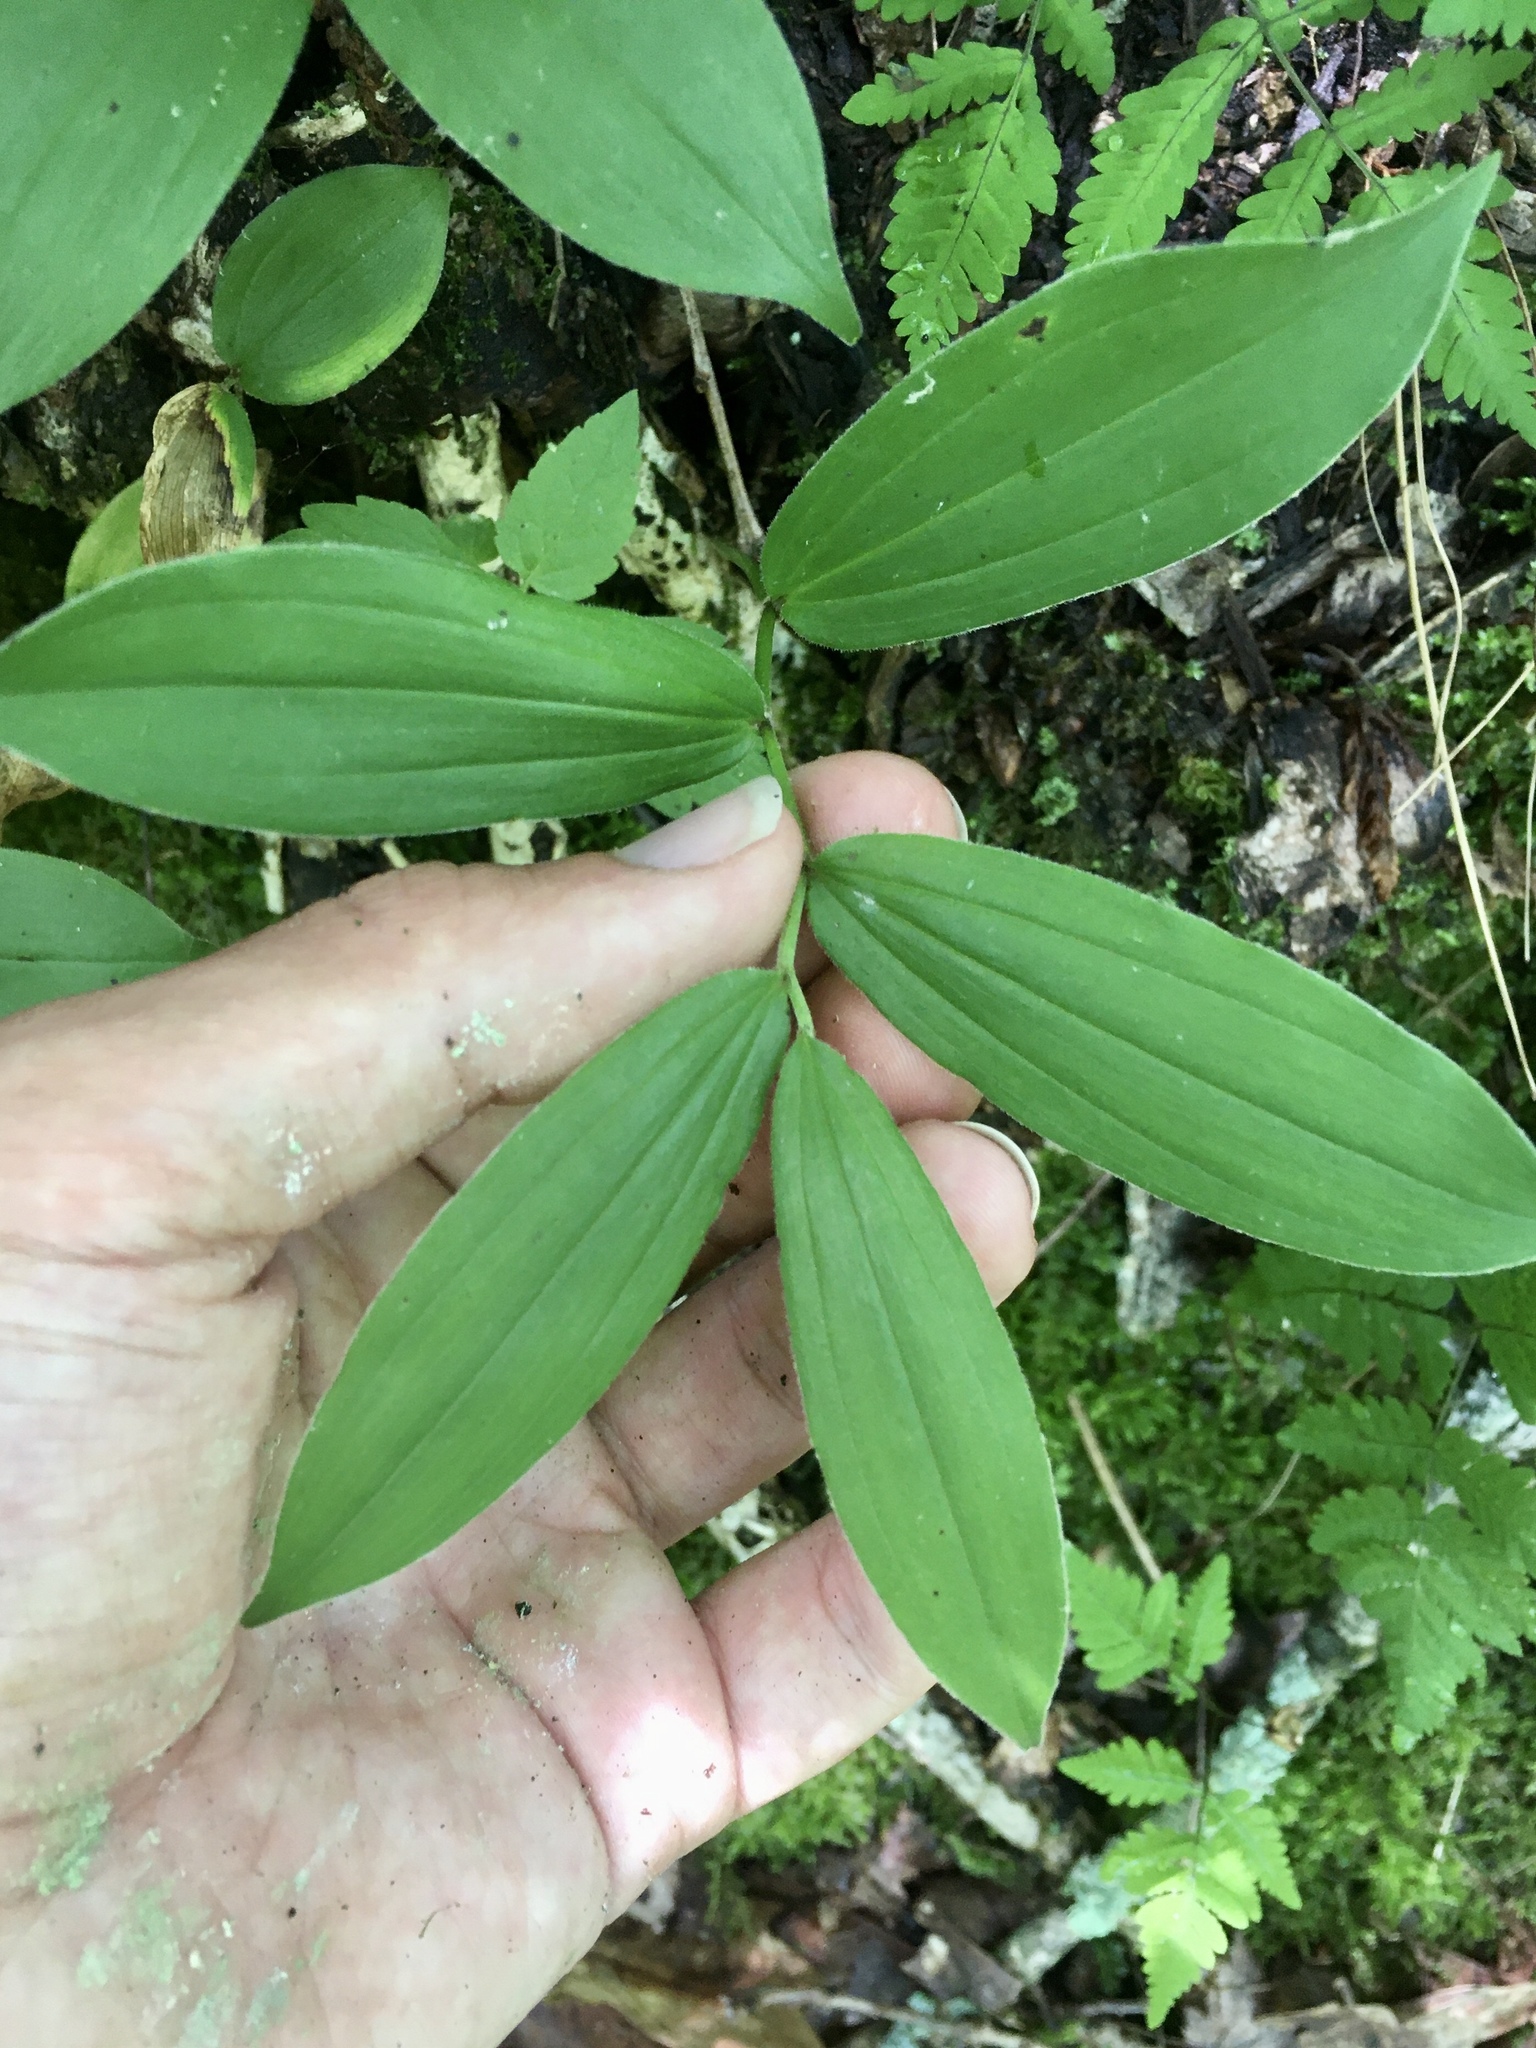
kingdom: Plantae
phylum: Tracheophyta
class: Liliopsida
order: Asparagales
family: Asparagaceae
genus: Maianthemum
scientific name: Maianthemum racemosum
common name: False spikenard
